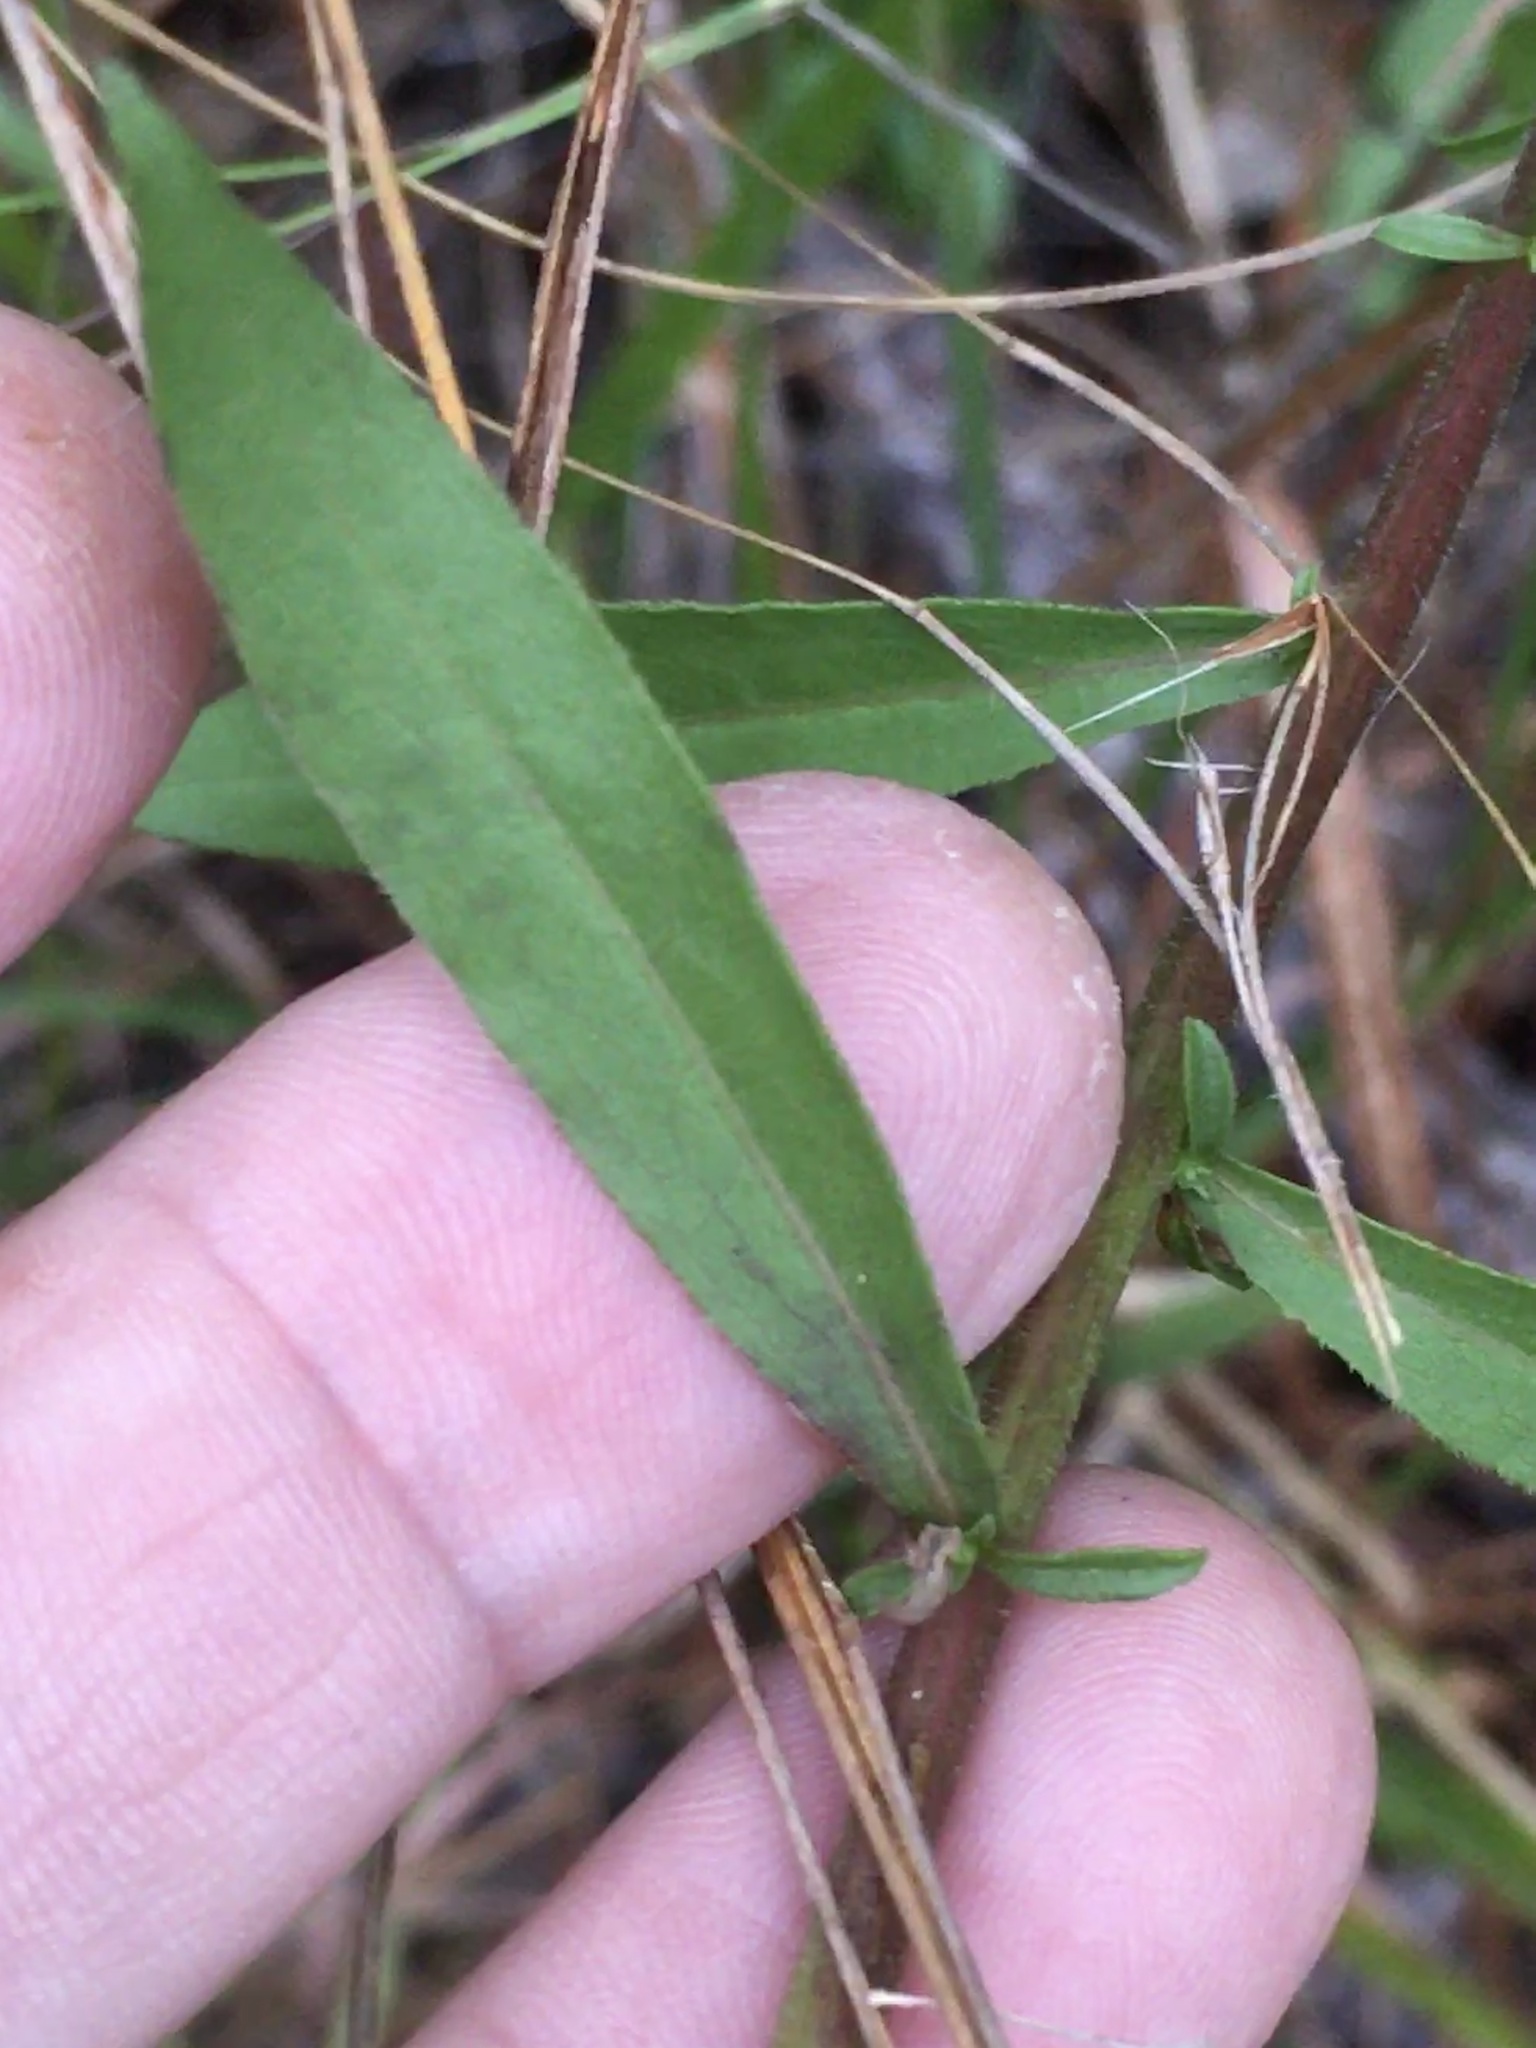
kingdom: Plantae
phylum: Tracheophyta
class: Magnoliopsida
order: Asterales
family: Asteraceae
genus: Solidago
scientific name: Solidago erecta
